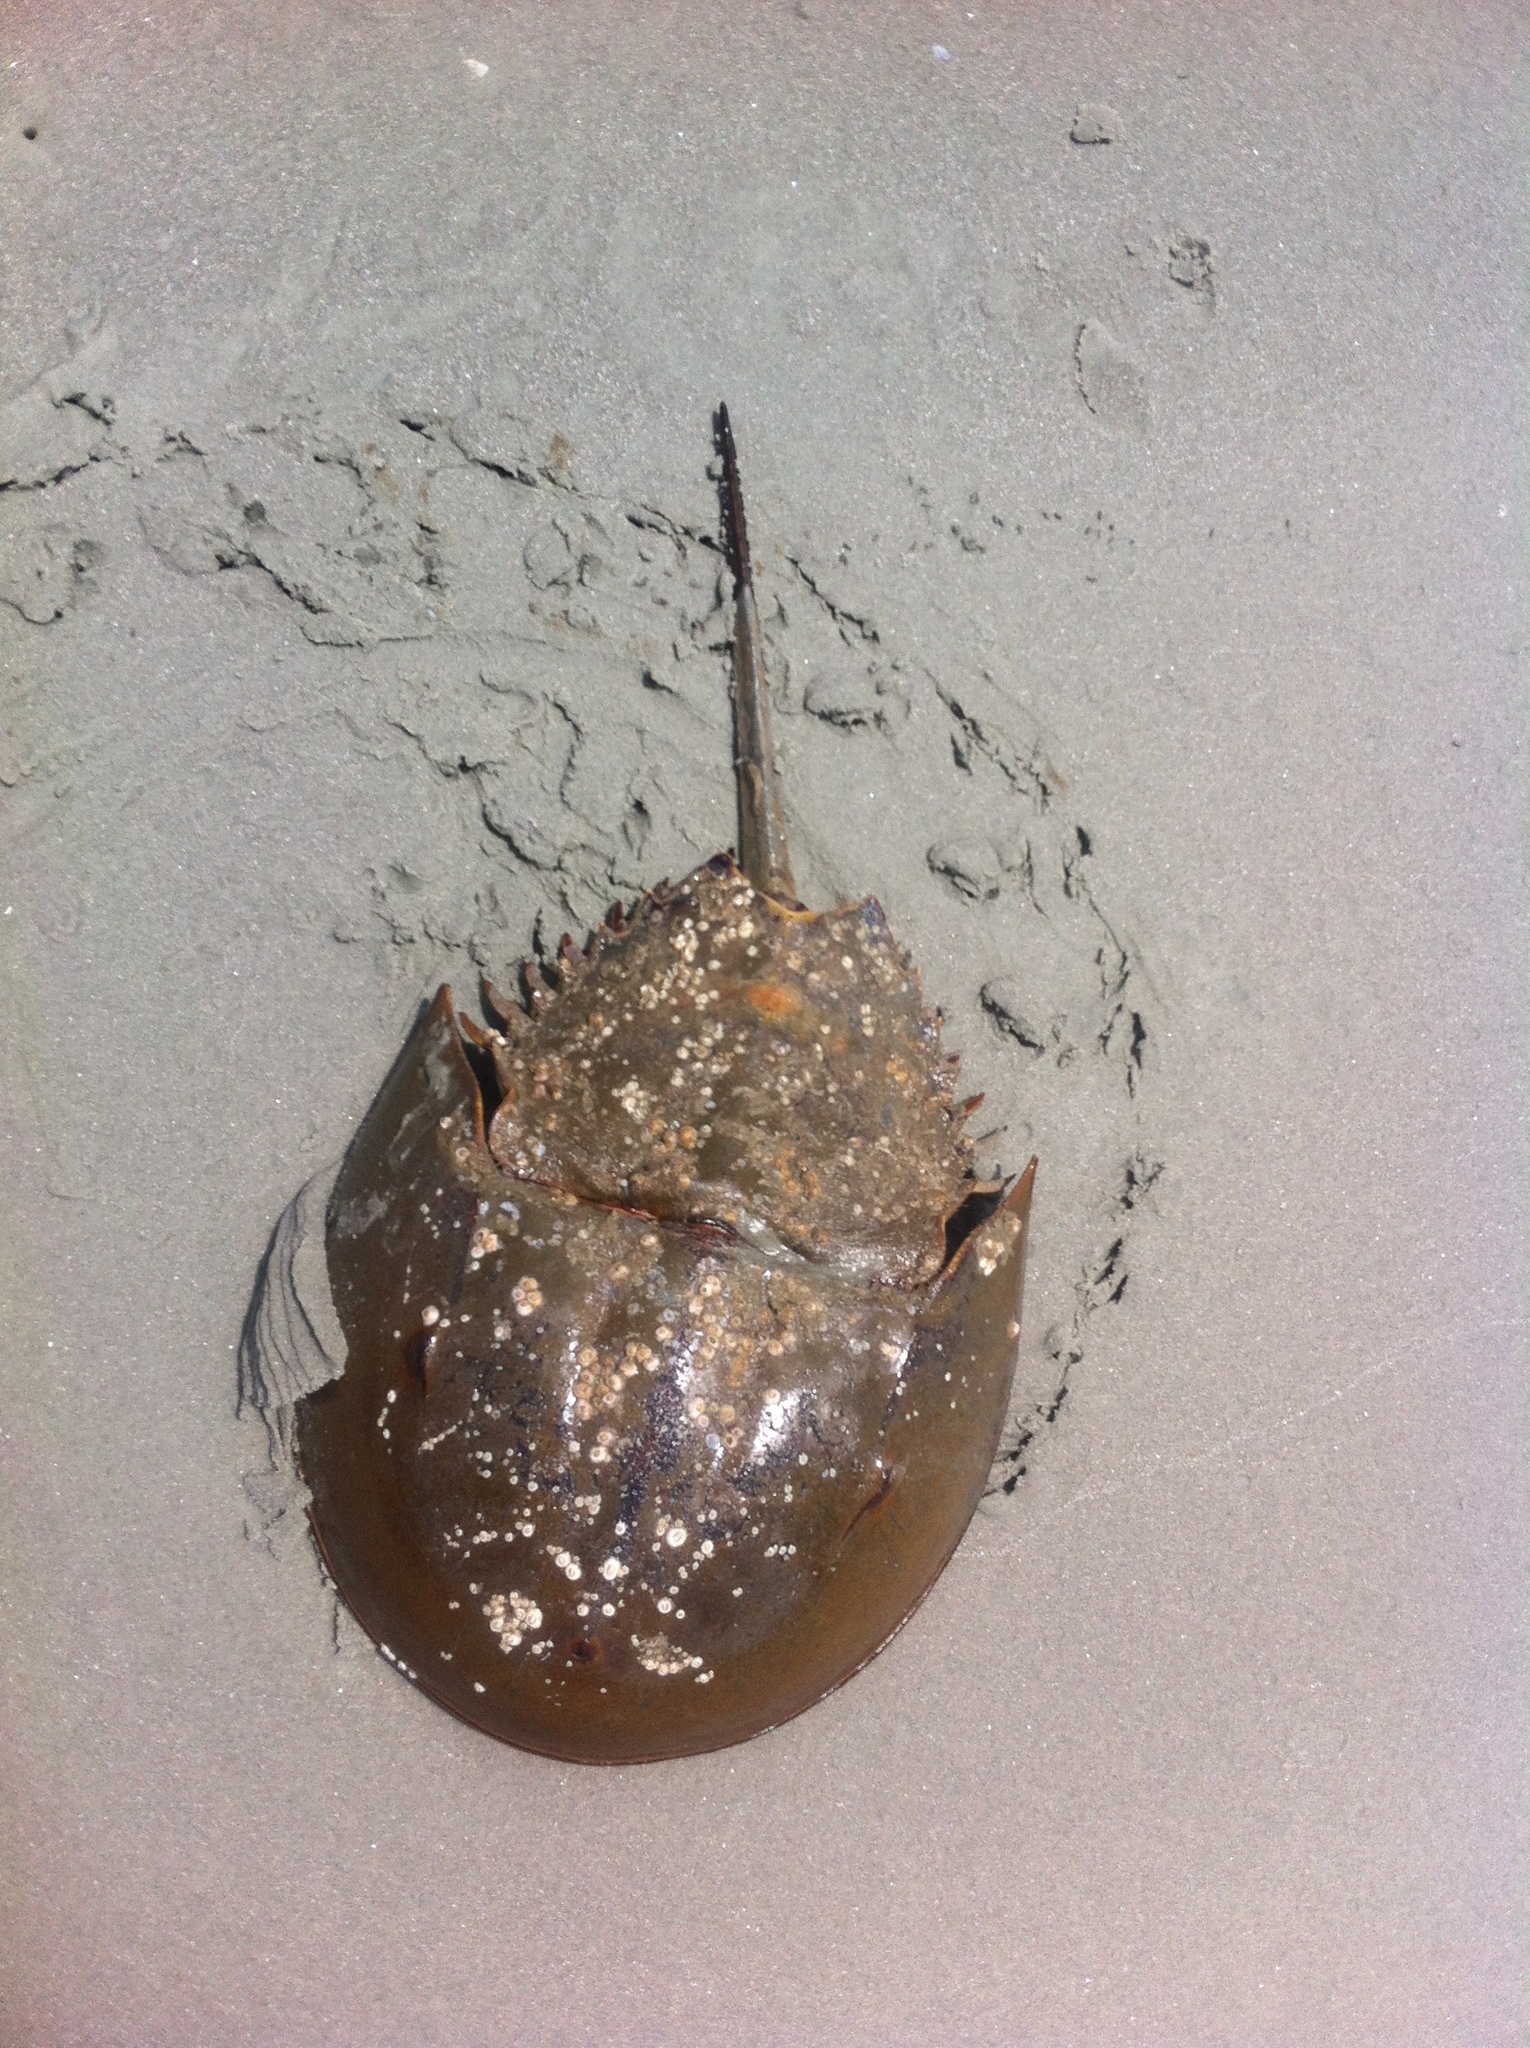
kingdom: Animalia
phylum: Arthropoda
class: Merostomata
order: Xiphosurida
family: Limulidae
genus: Limulus
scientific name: Limulus polyphemus
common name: Horseshoe crab
